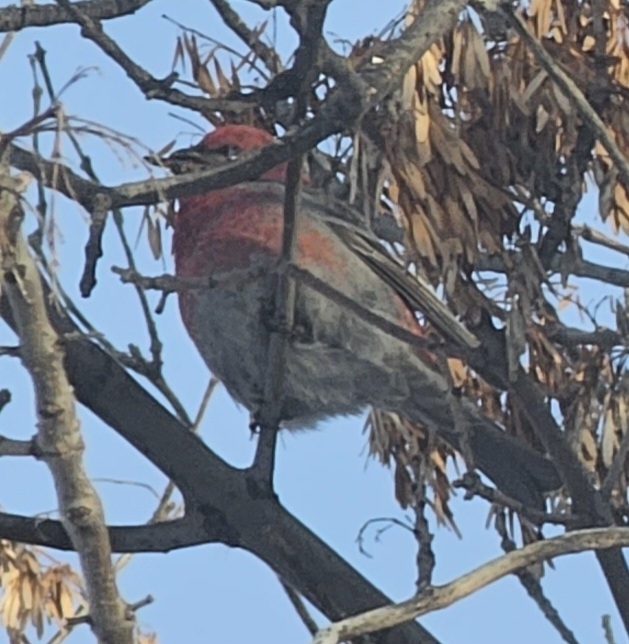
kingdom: Animalia
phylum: Chordata
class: Aves
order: Passeriformes
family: Fringillidae
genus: Pinicola
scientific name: Pinicola enucleator
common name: Pine grosbeak
